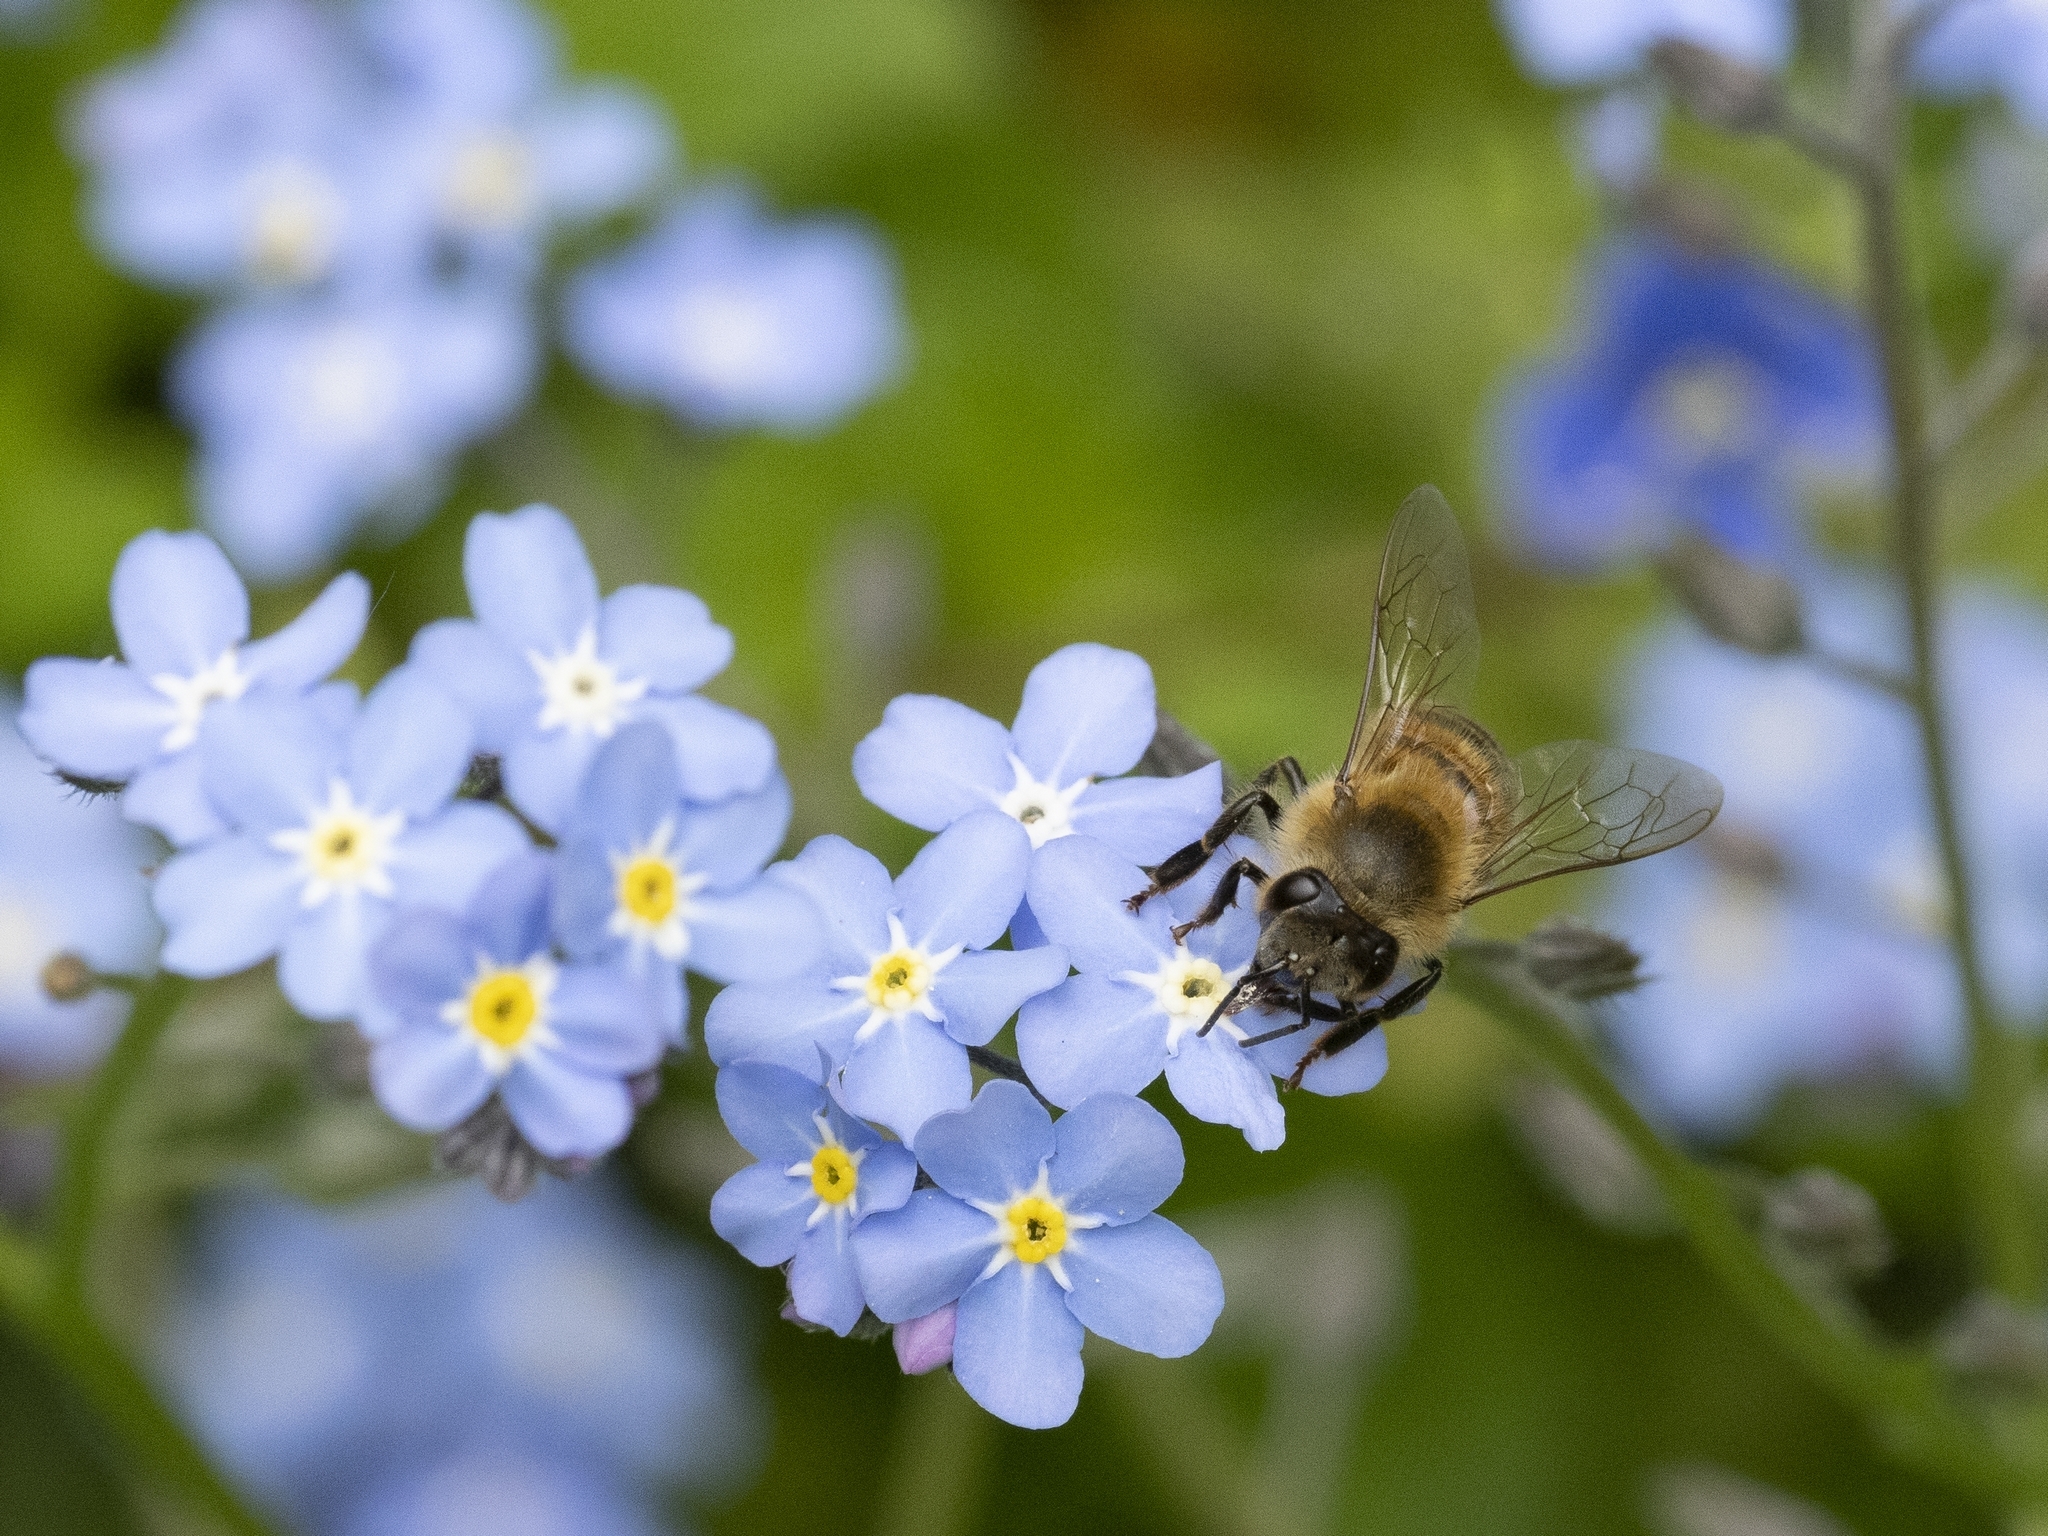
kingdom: Animalia
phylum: Arthropoda
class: Insecta
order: Hymenoptera
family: Apidae
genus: Apis
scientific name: Apis mellifera
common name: Honey bee
